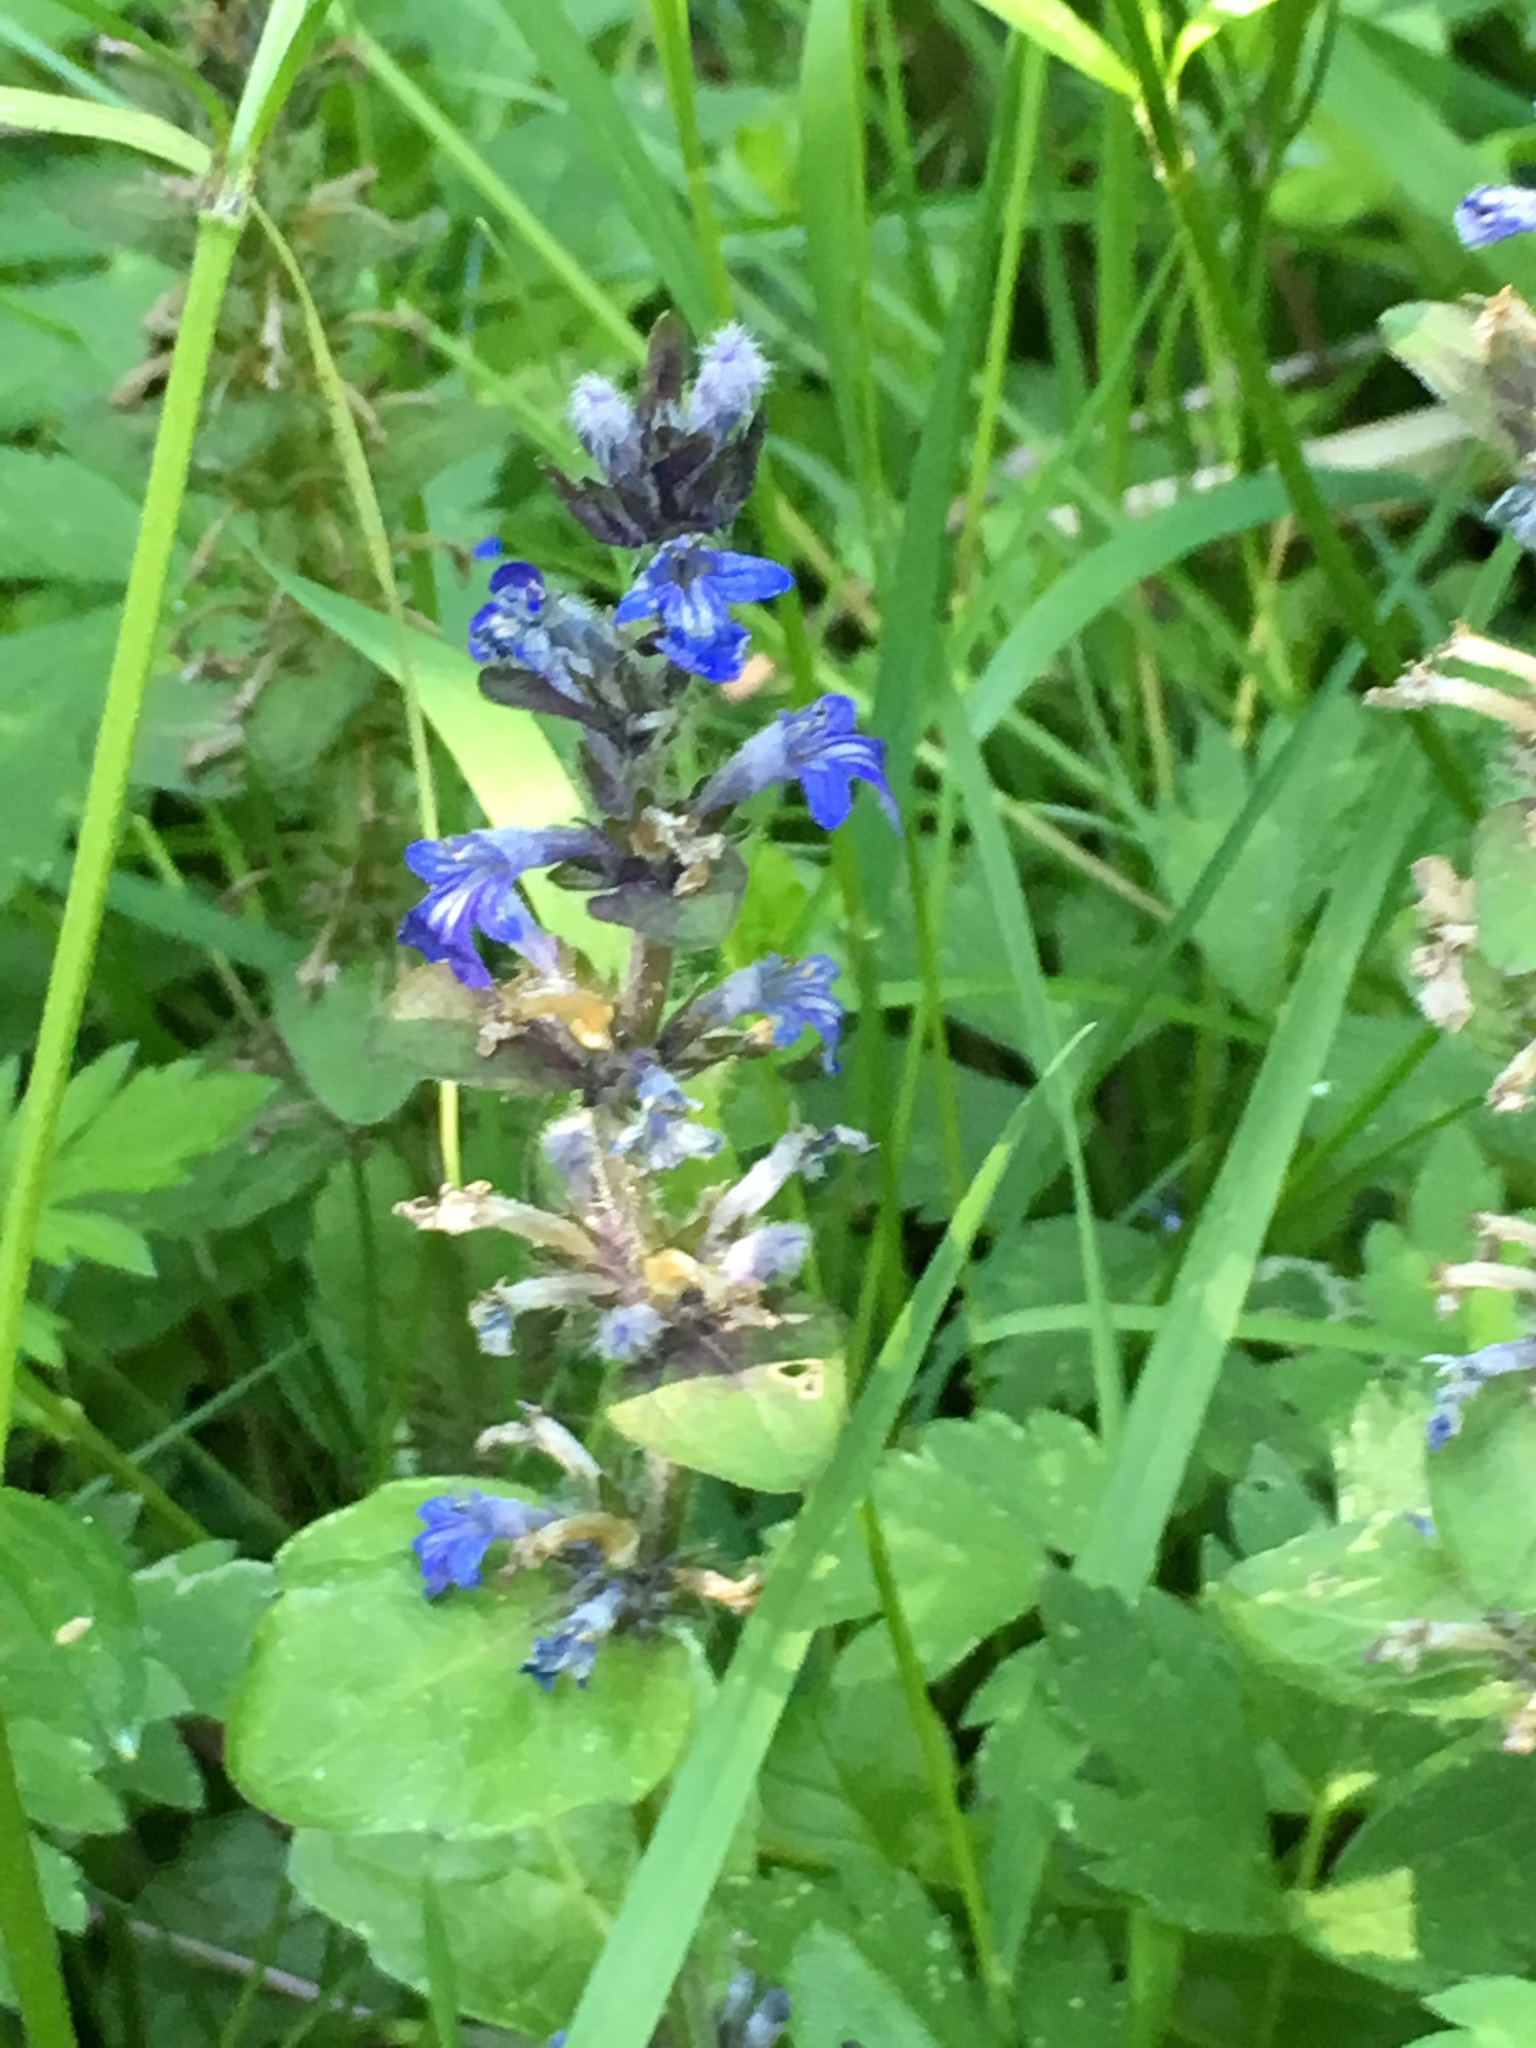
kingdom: Plantae
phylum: Tracheophyta
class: Magnoliopsida
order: Lamiales
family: Lamiaceae
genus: Ajuga
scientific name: Ajuga reptans
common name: Bugle
